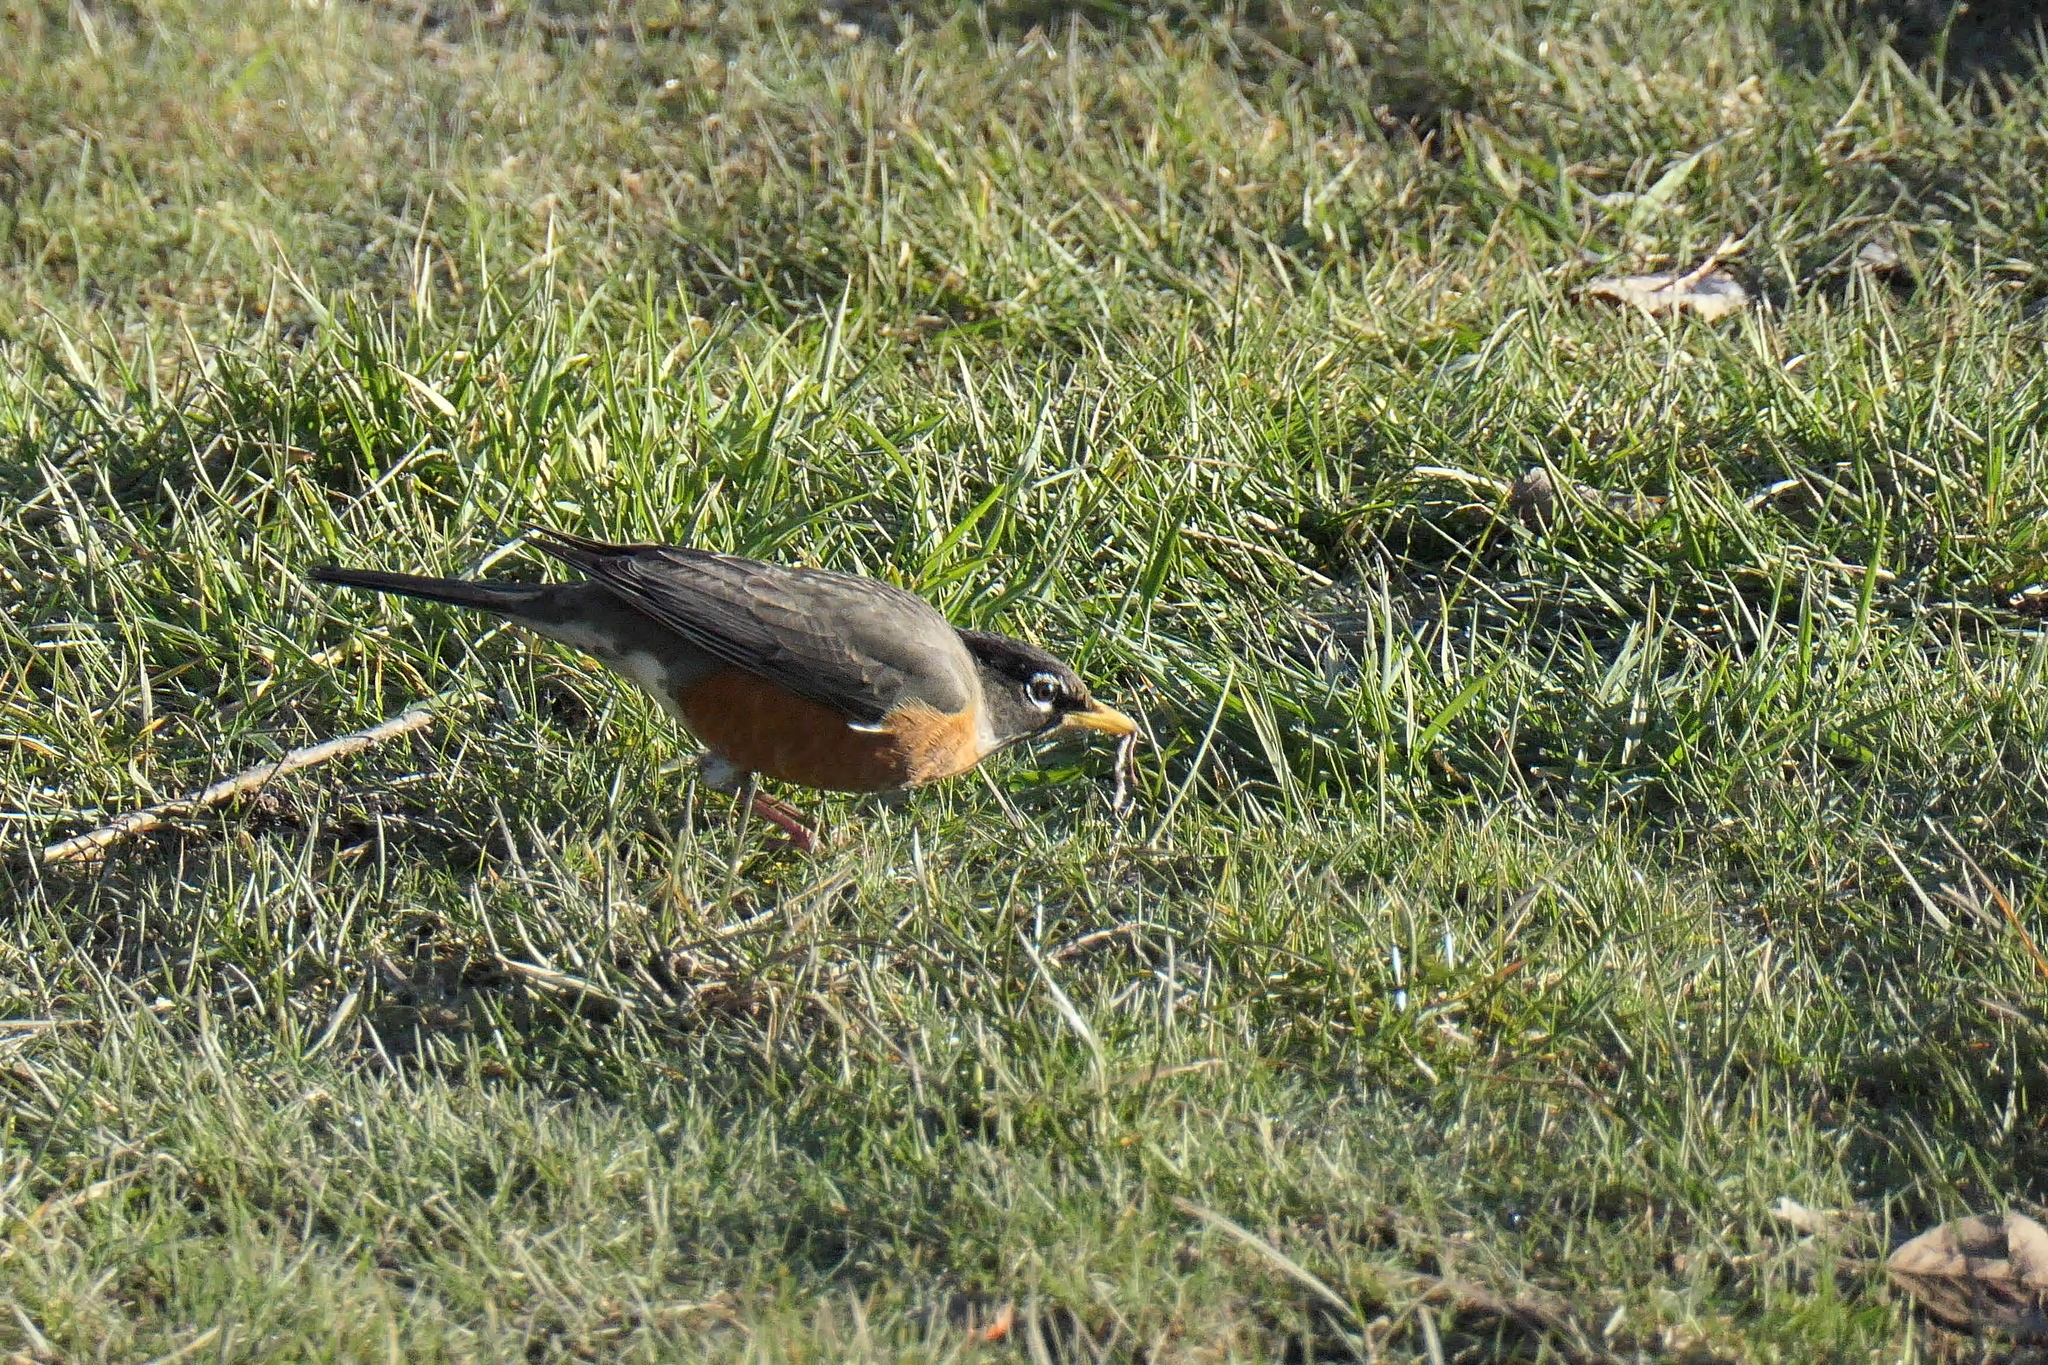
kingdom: Animalia
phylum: Chordata
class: Aves
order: Passeriformes
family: Turdidae
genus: Turdus
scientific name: Turdus migratorius
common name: American robin
